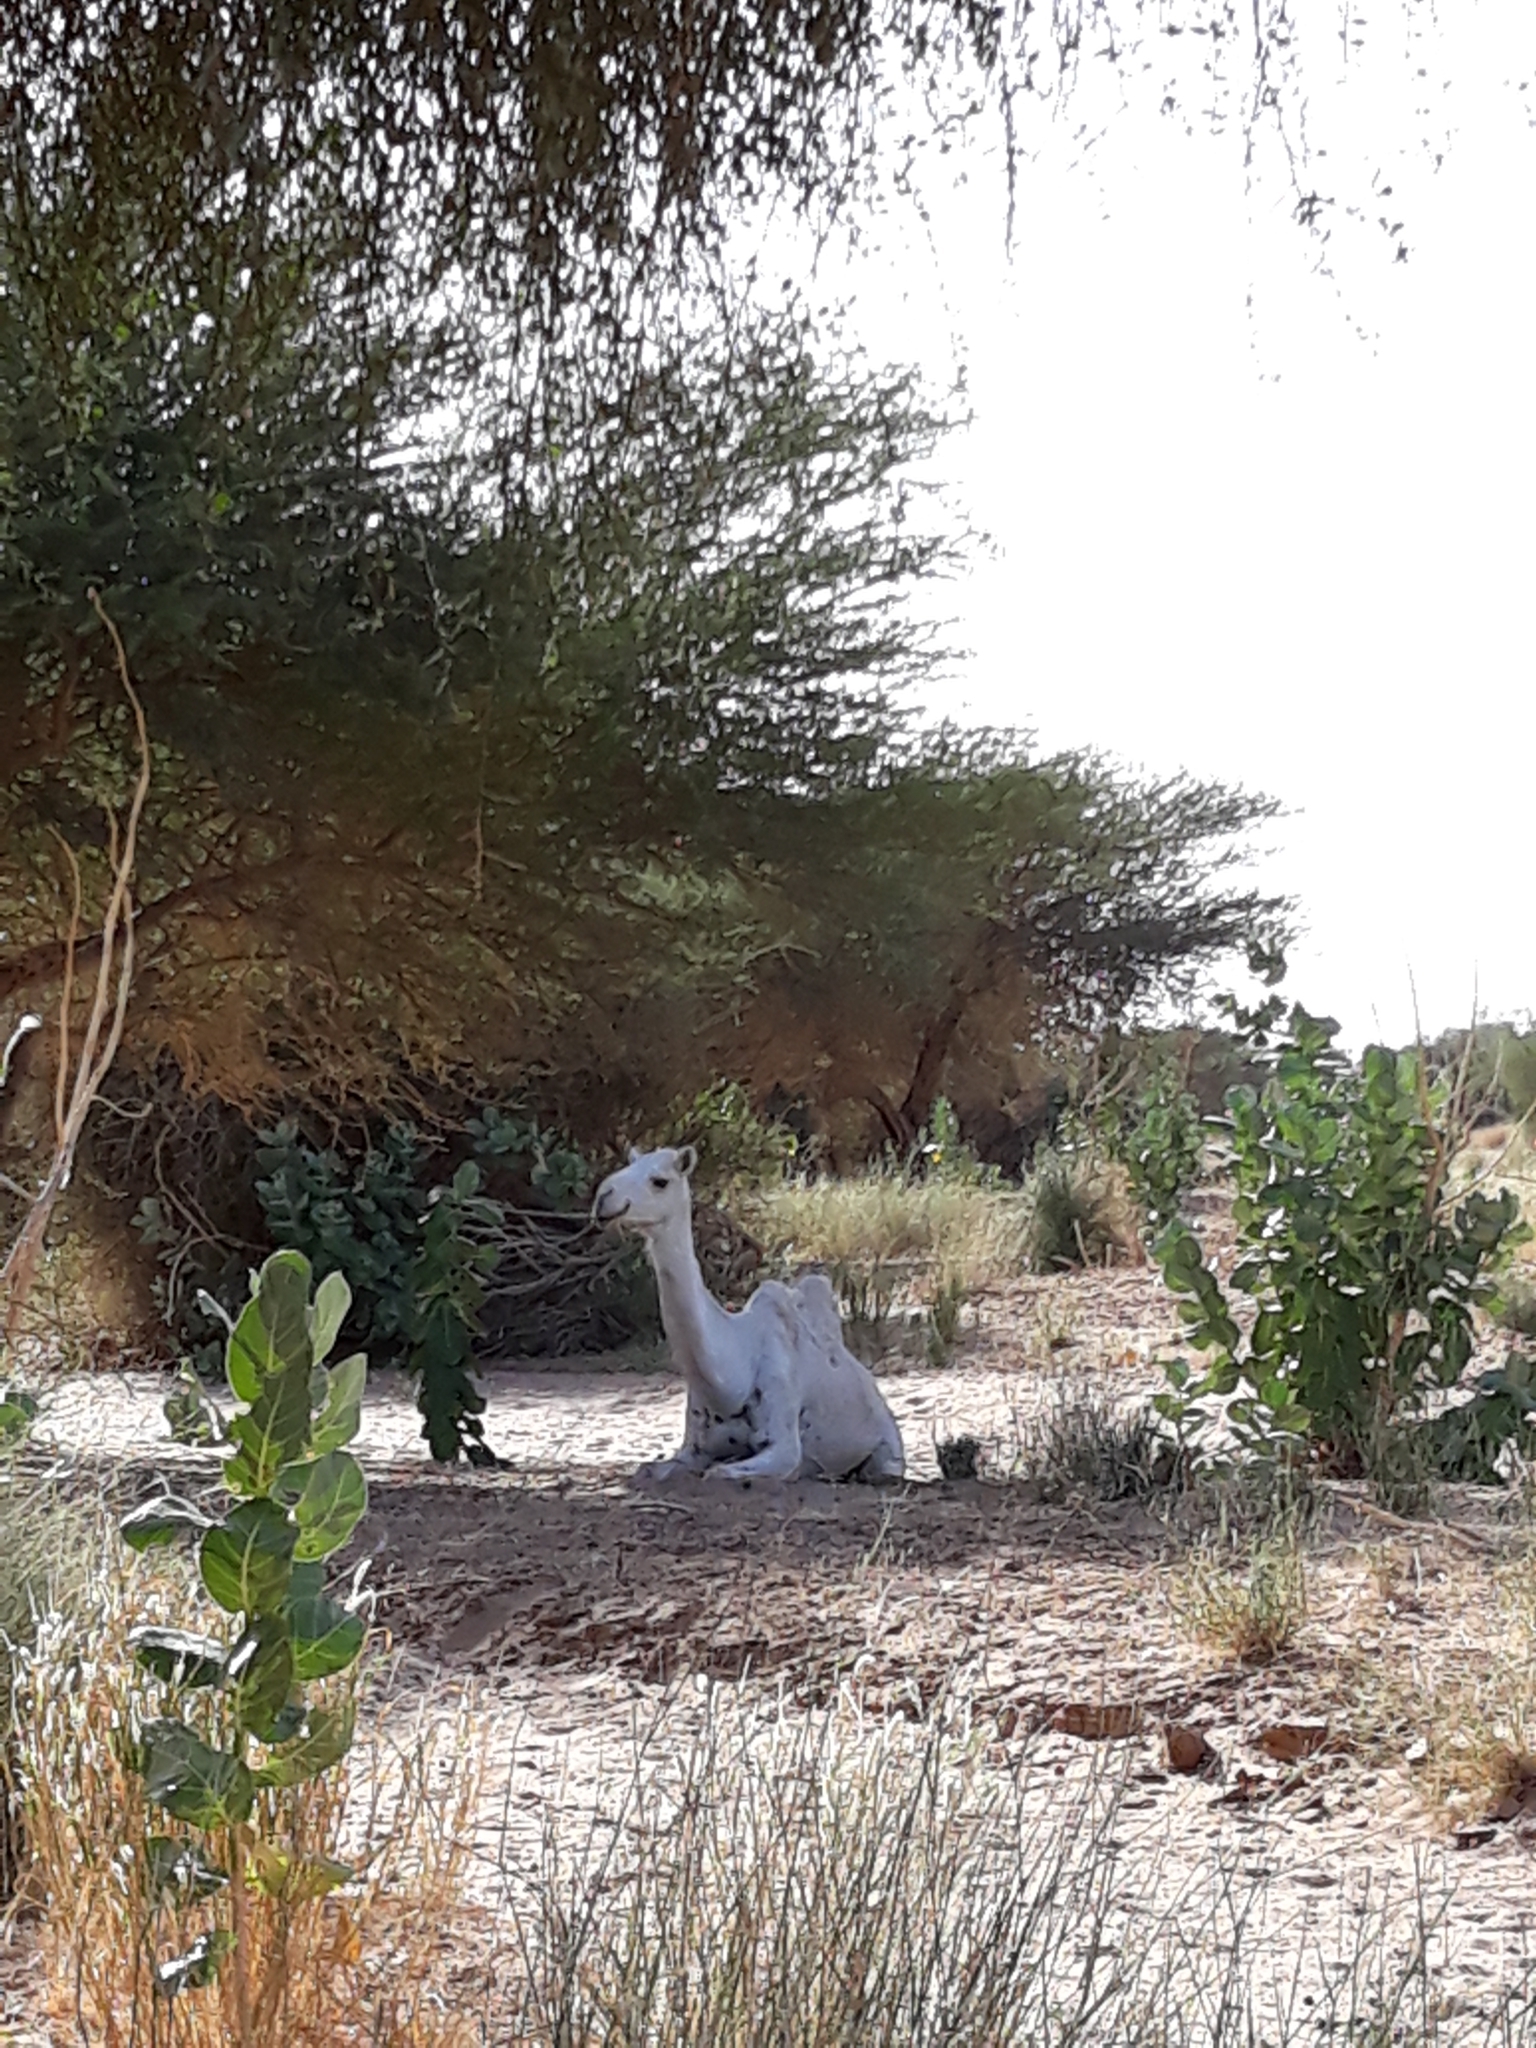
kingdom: Animalia
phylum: Chordata
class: Mammalia
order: Artiodactyla
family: Camelidae
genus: Camelus
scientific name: Camelus dromedarius
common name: One-humped camel
